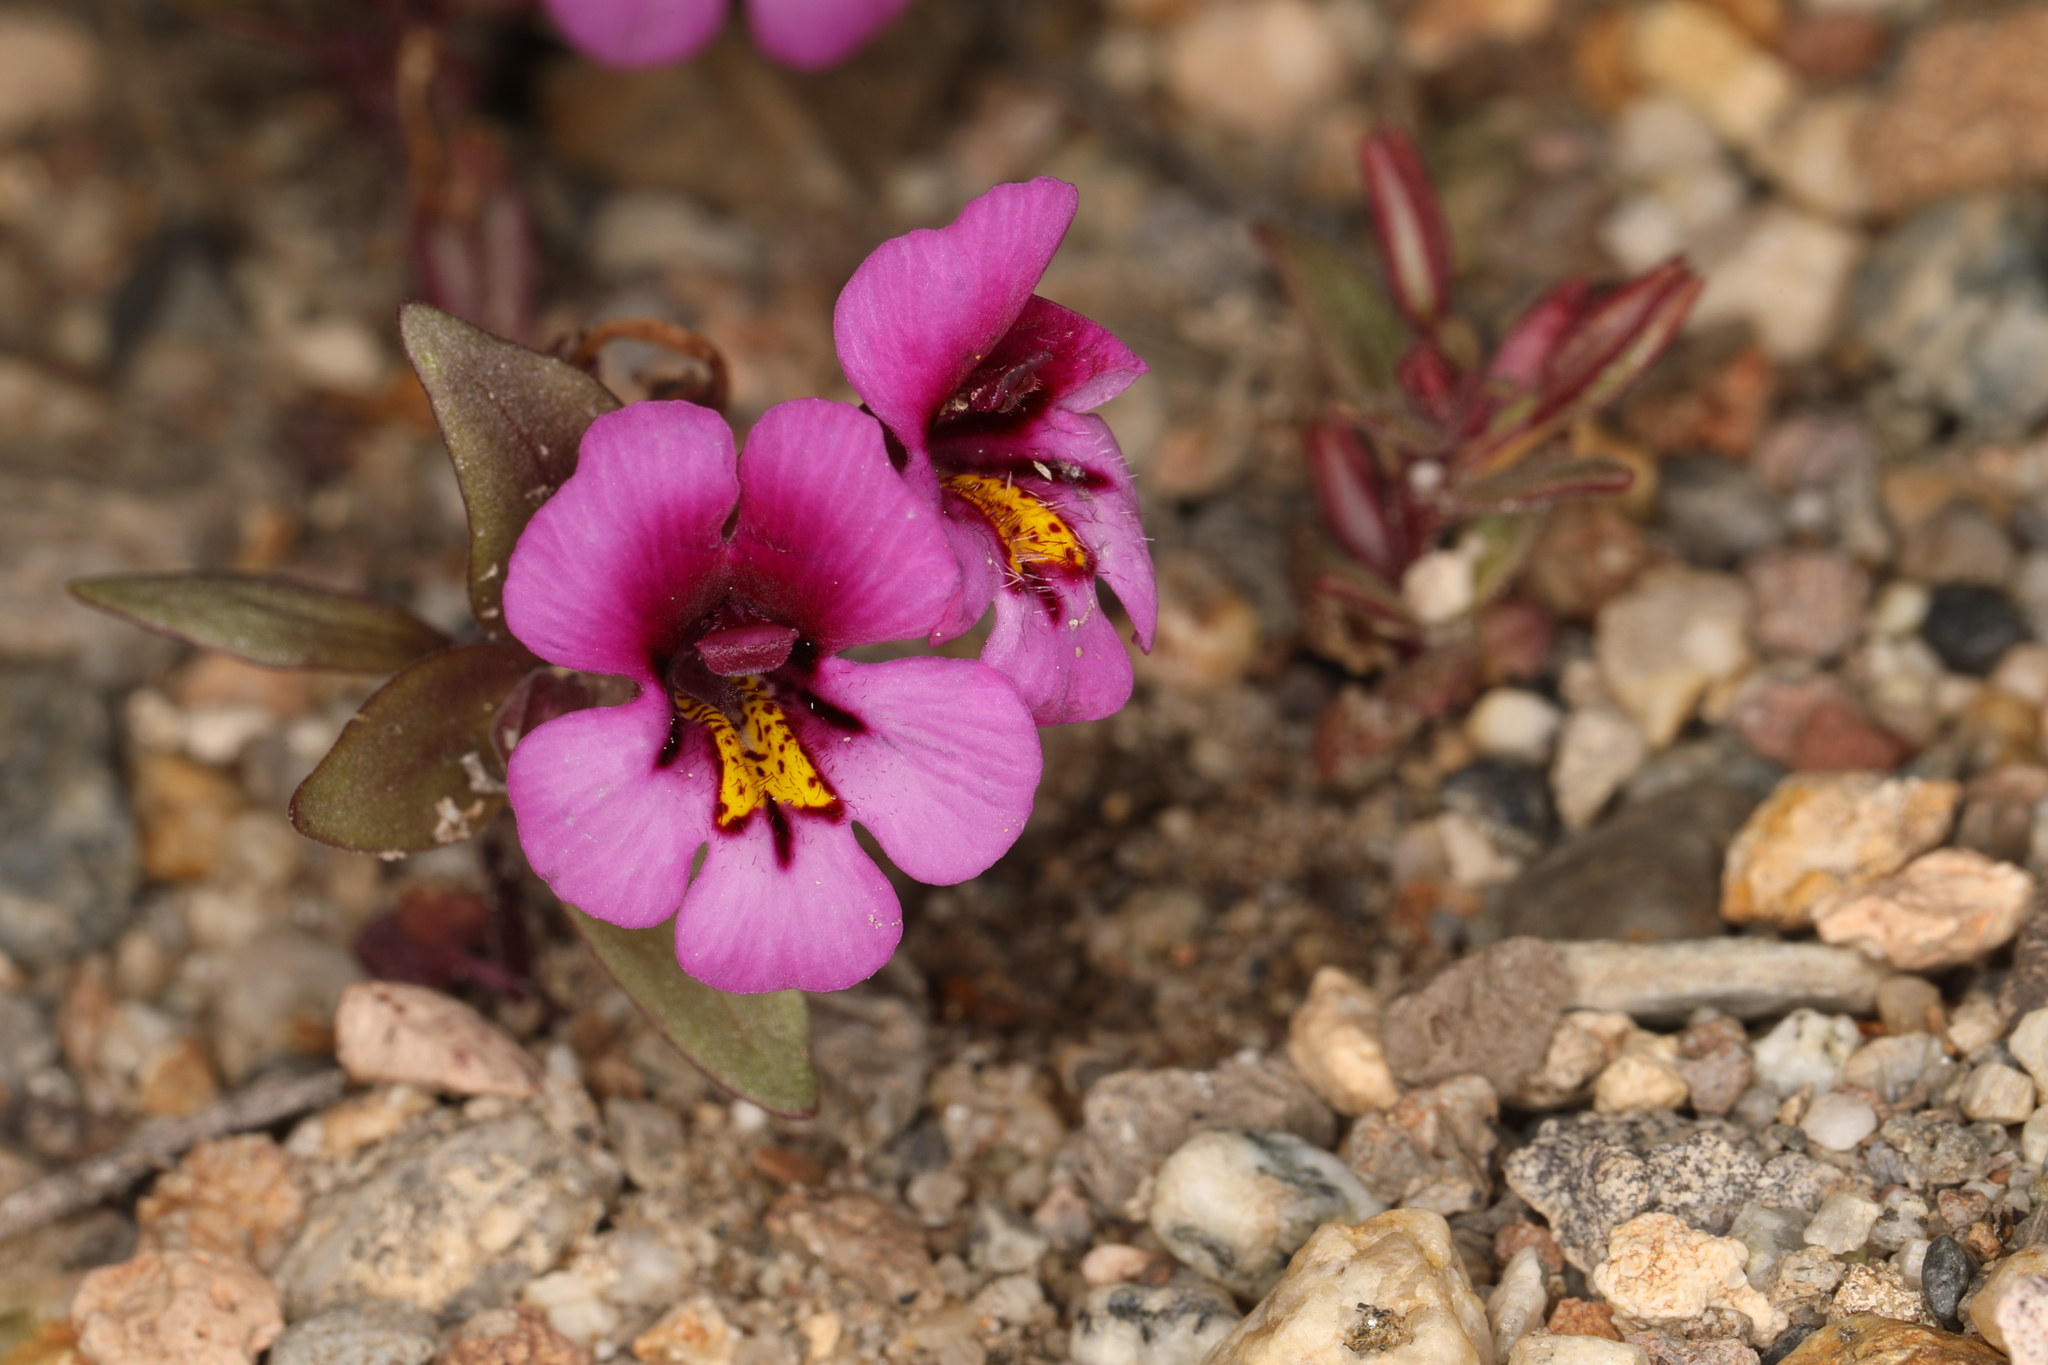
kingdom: Plantae
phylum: Tracheophyta
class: Magnoliopsida
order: Lamiales
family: Phrymaceae
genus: Diplacus
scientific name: Diplacus nanus
